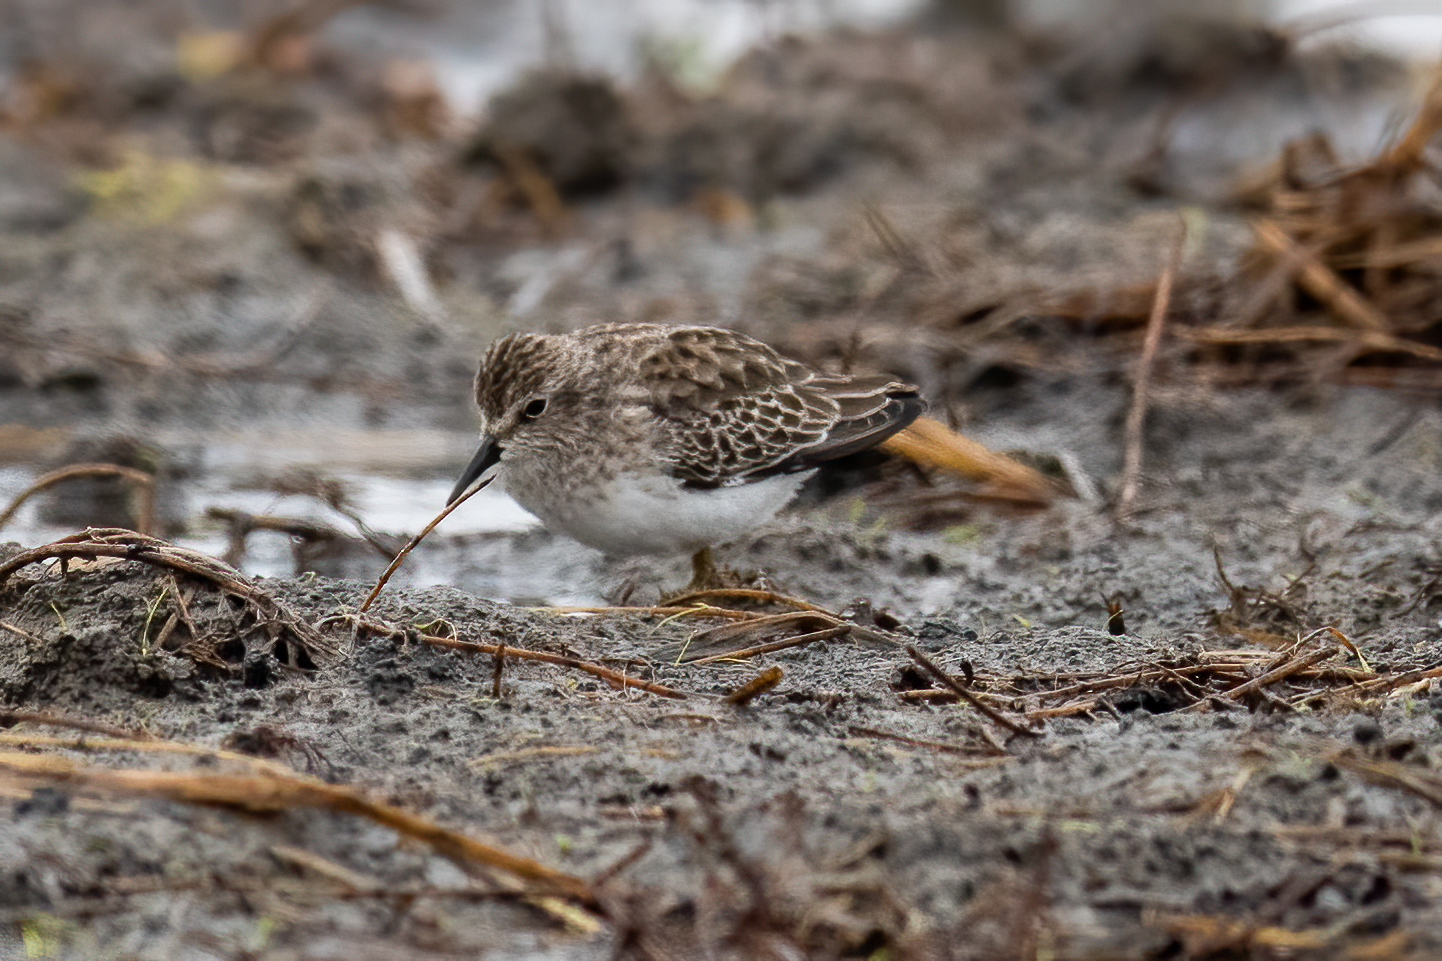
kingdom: Animalia
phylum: Chordata
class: Aves
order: Charadriiformes
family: Scolopacidae
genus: Calidris
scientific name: Calidris minutilla
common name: Least sandpiper
